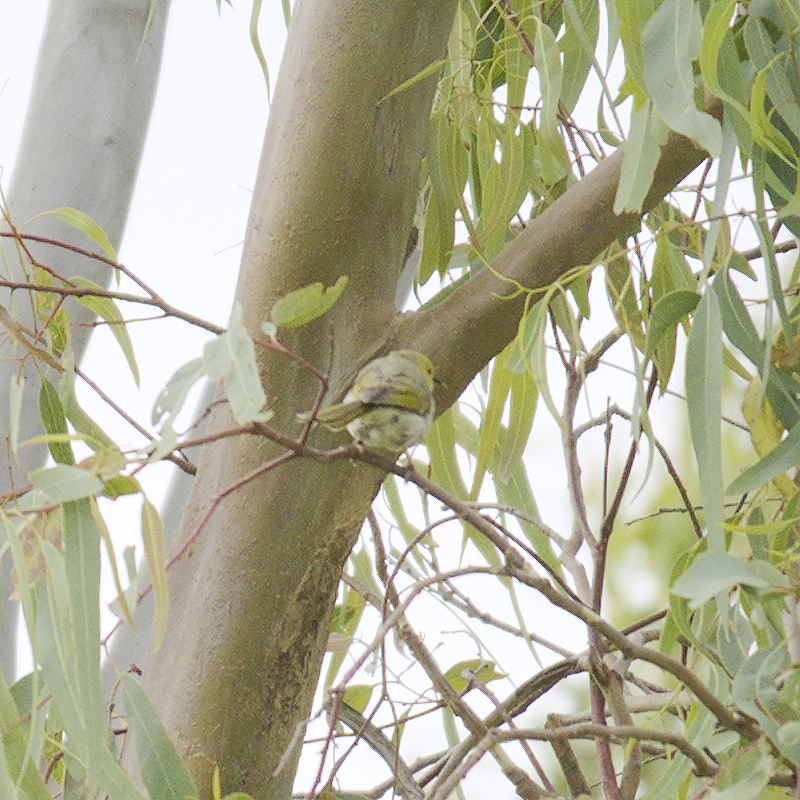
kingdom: Animalia
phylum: Chordata
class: Aves
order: Passeriformes
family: Meliphagidae
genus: Ptilotula
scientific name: Ptilotula penicillata
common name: White-plumed honeyeater
